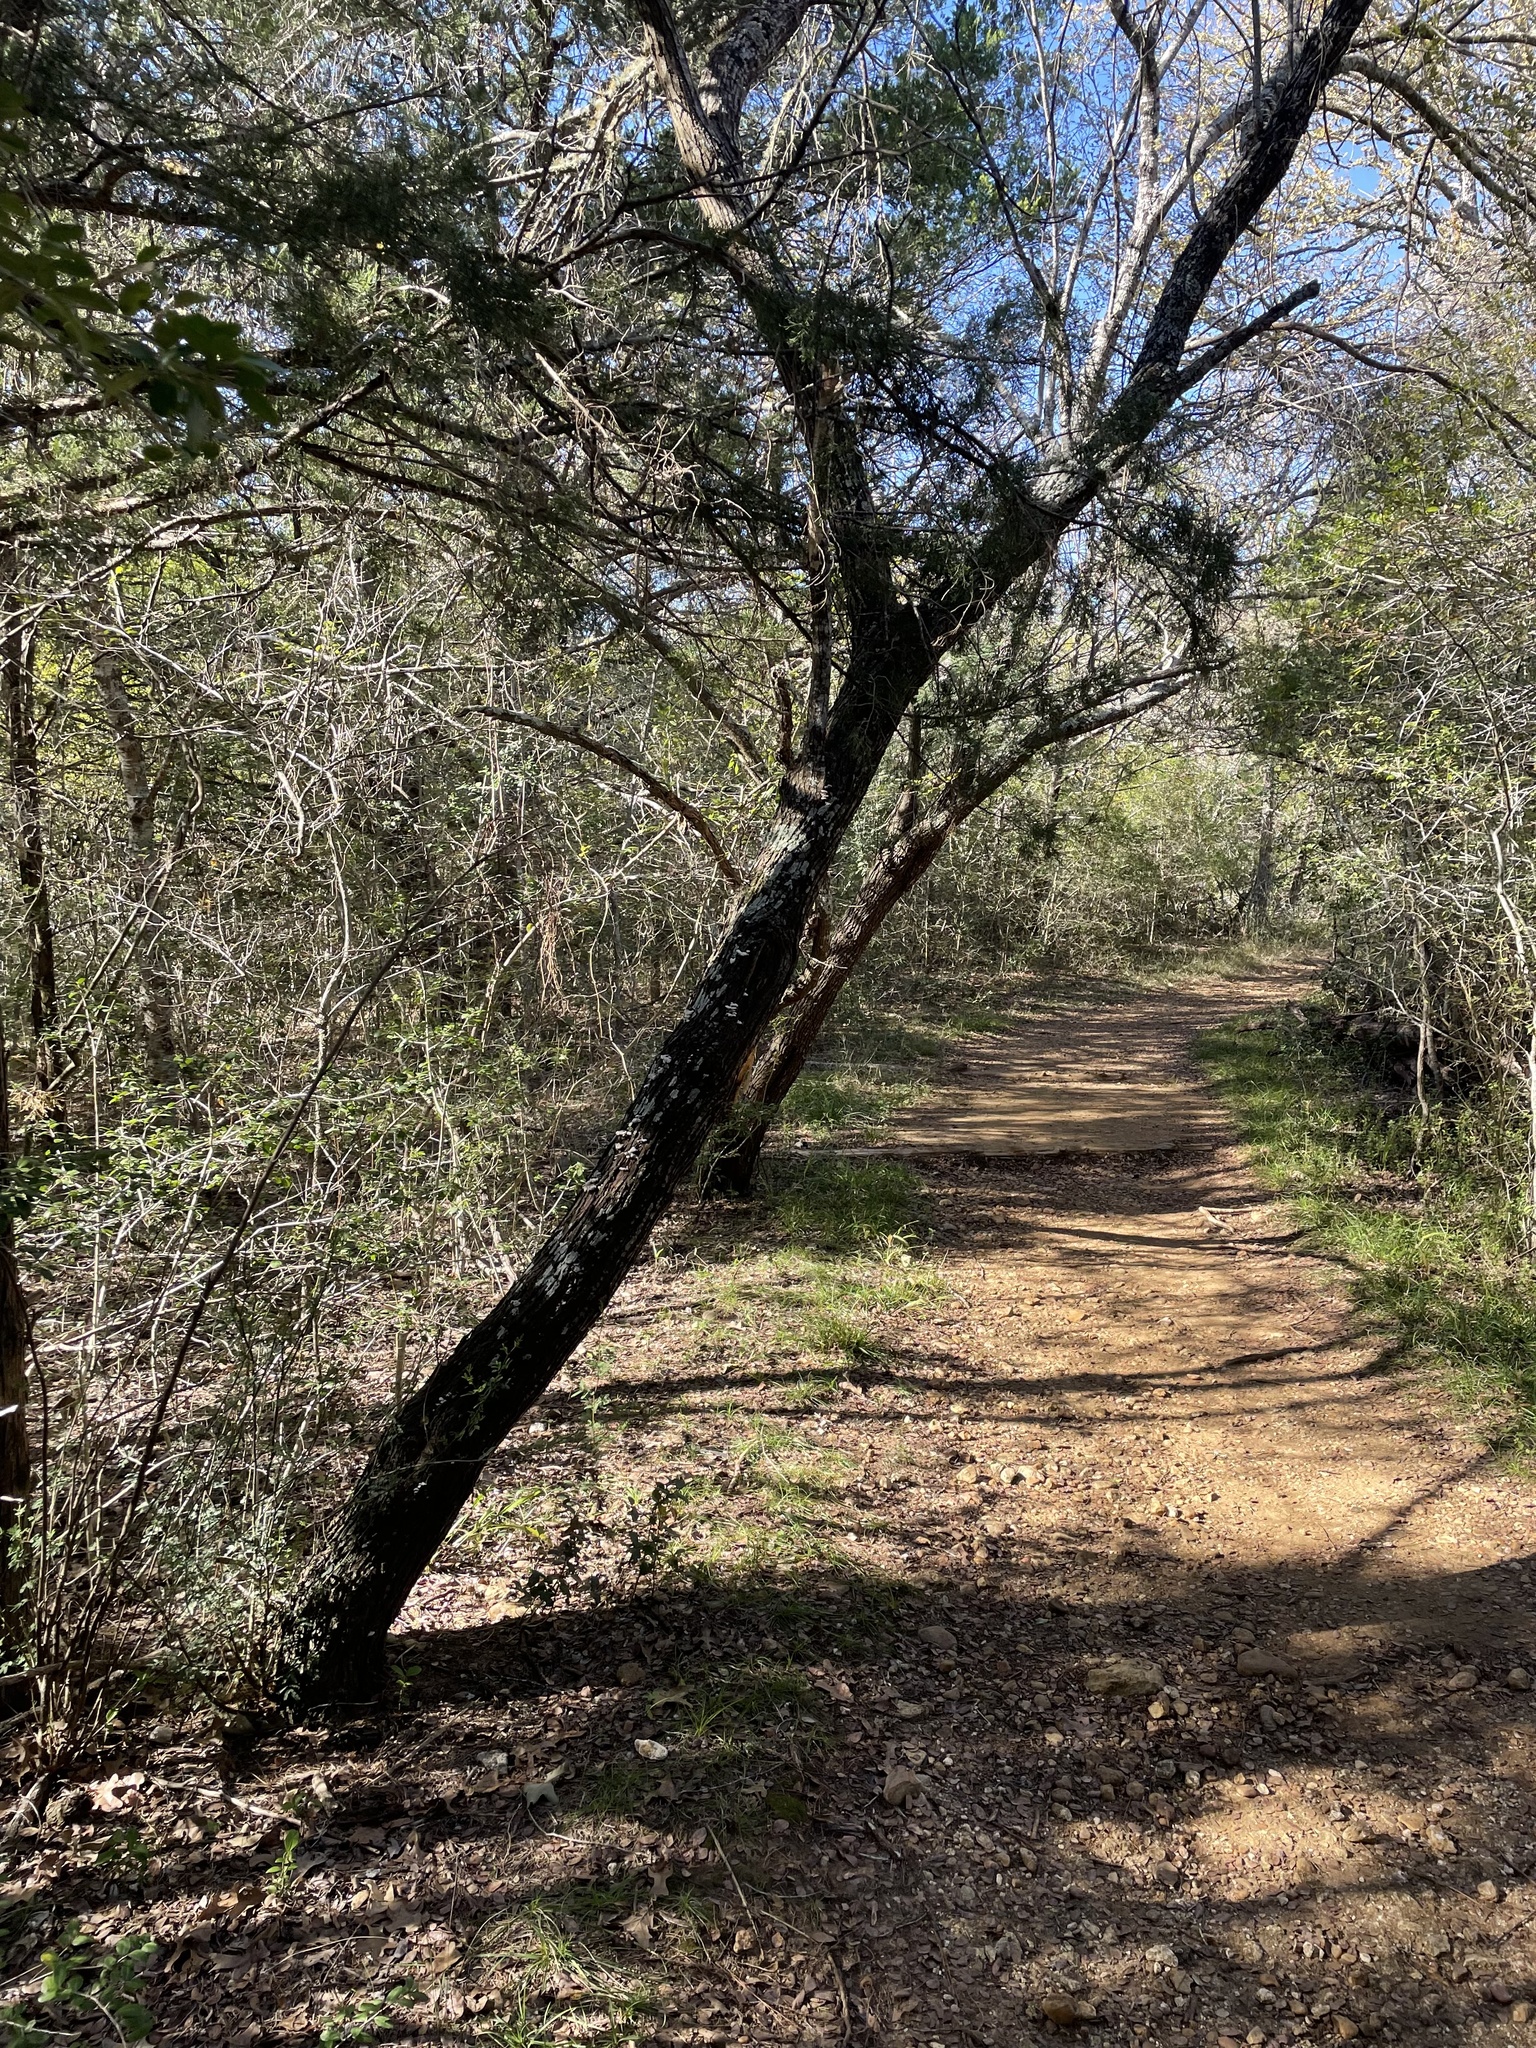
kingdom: Plantae
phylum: Tracheophyta
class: Magnoliopsida
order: Fabales
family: Fabaceae
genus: Vachellia
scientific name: Vachellia farnesiana
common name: Sweet acacia
